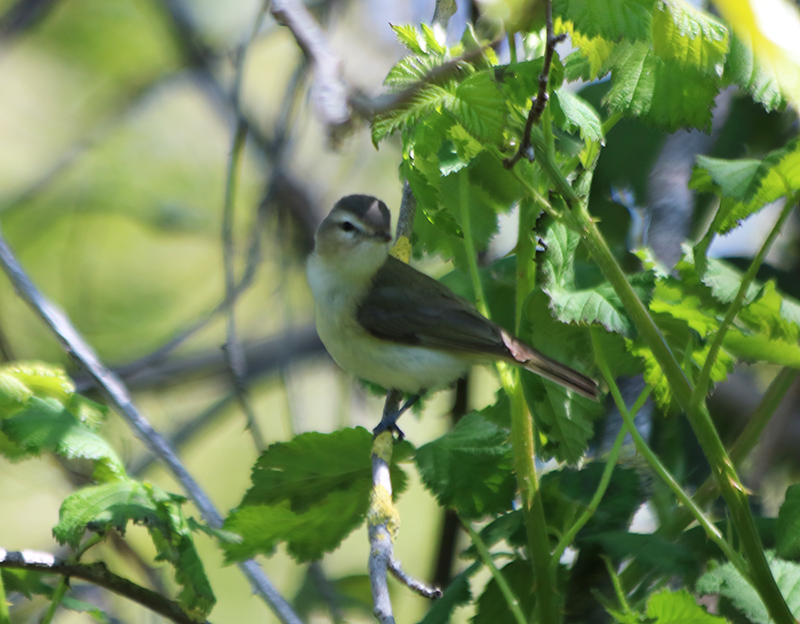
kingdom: Animalia
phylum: Chordata
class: Aves
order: Passeriformes
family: Vireonidae
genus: Vireo
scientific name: Vireo gilvus
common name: Warbling vireo
